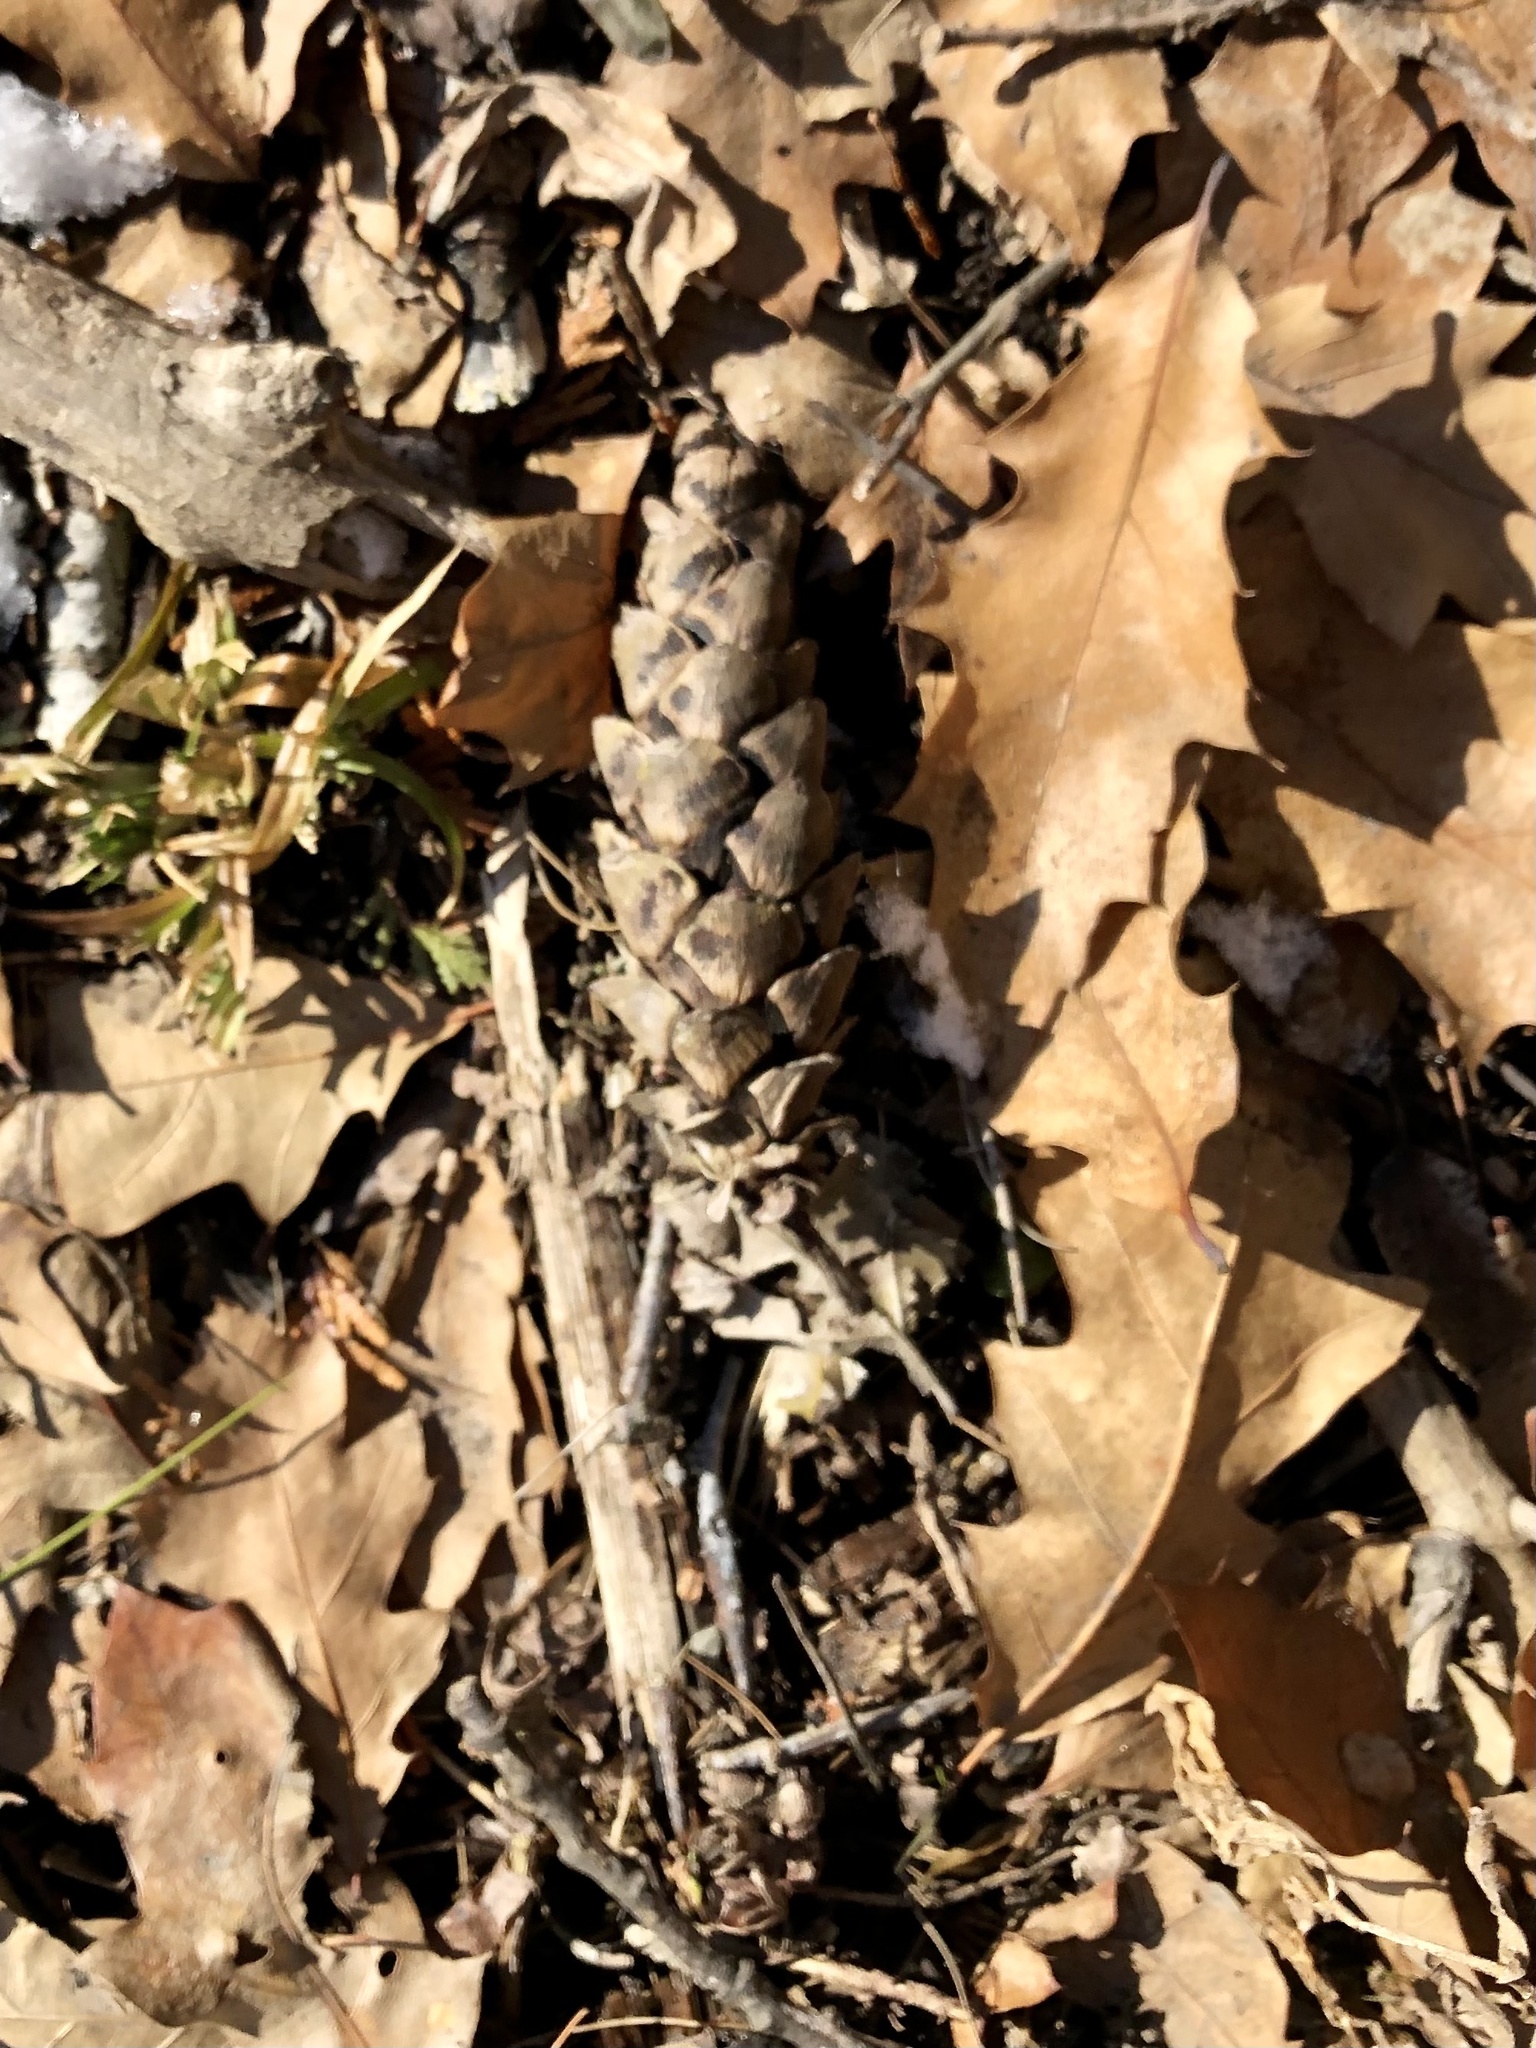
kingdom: Plantae
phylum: Tracheophyta
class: Pinopsida
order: Pinales
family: Pinaceae
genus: Pinus
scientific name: Pinus strobus
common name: Weymouth pine
